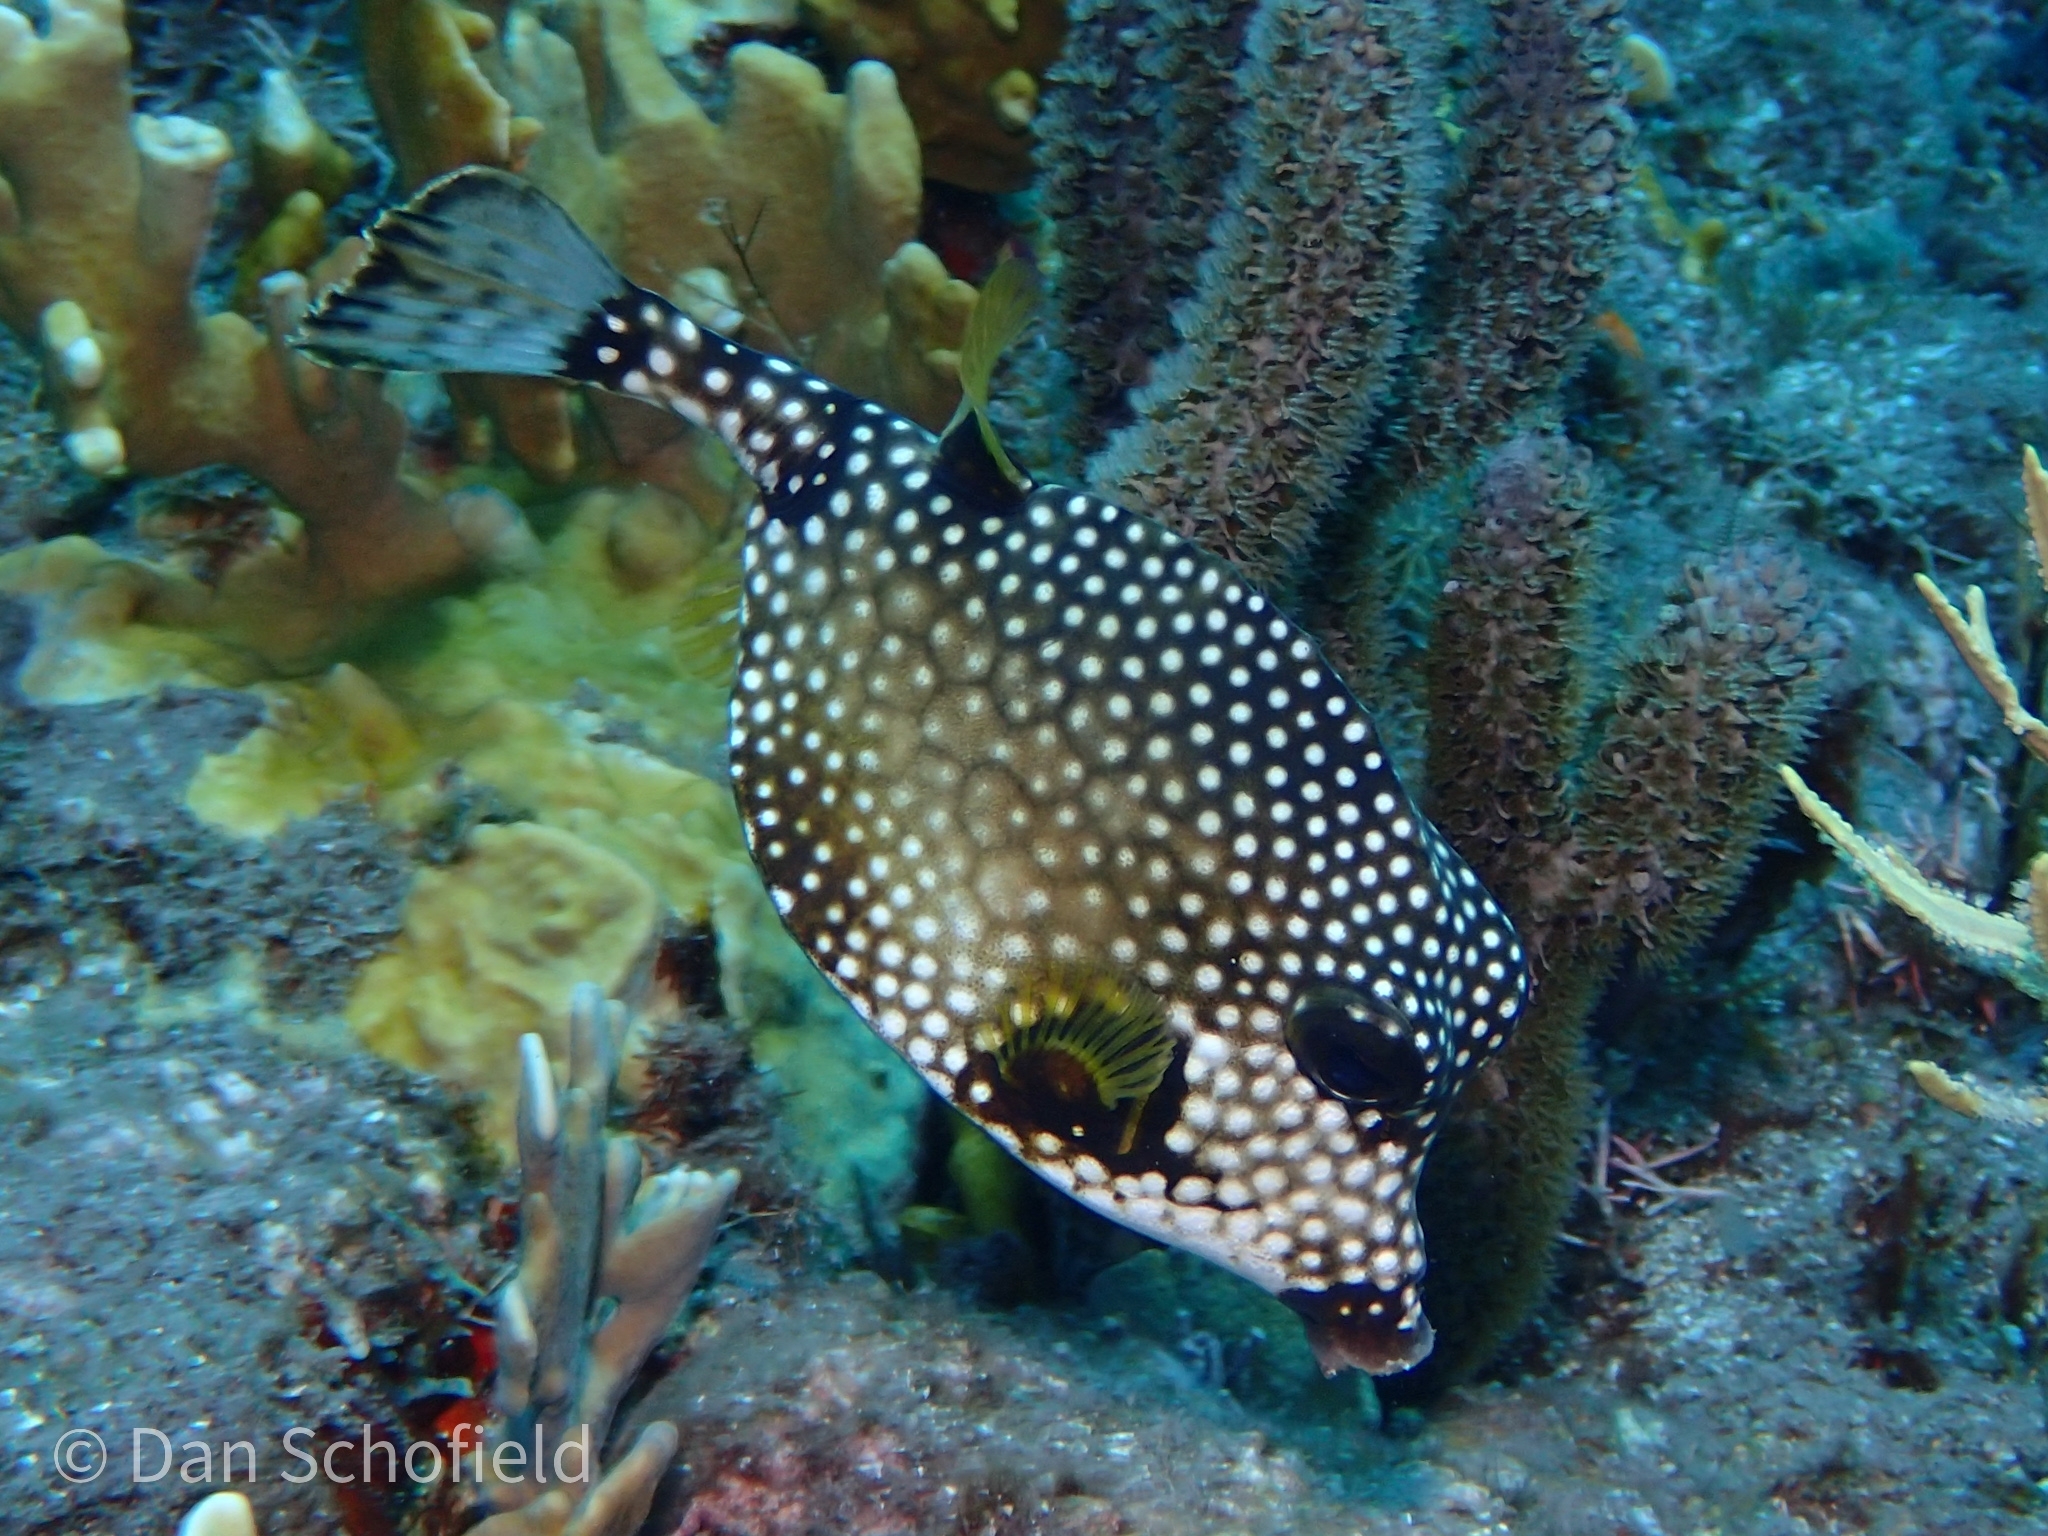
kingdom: Animalia
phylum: Chordata
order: Tetraodontiformes
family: Ostraciidae
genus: Lactophrys
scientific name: Lactophrys triqueter
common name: Smooth trunkfish
